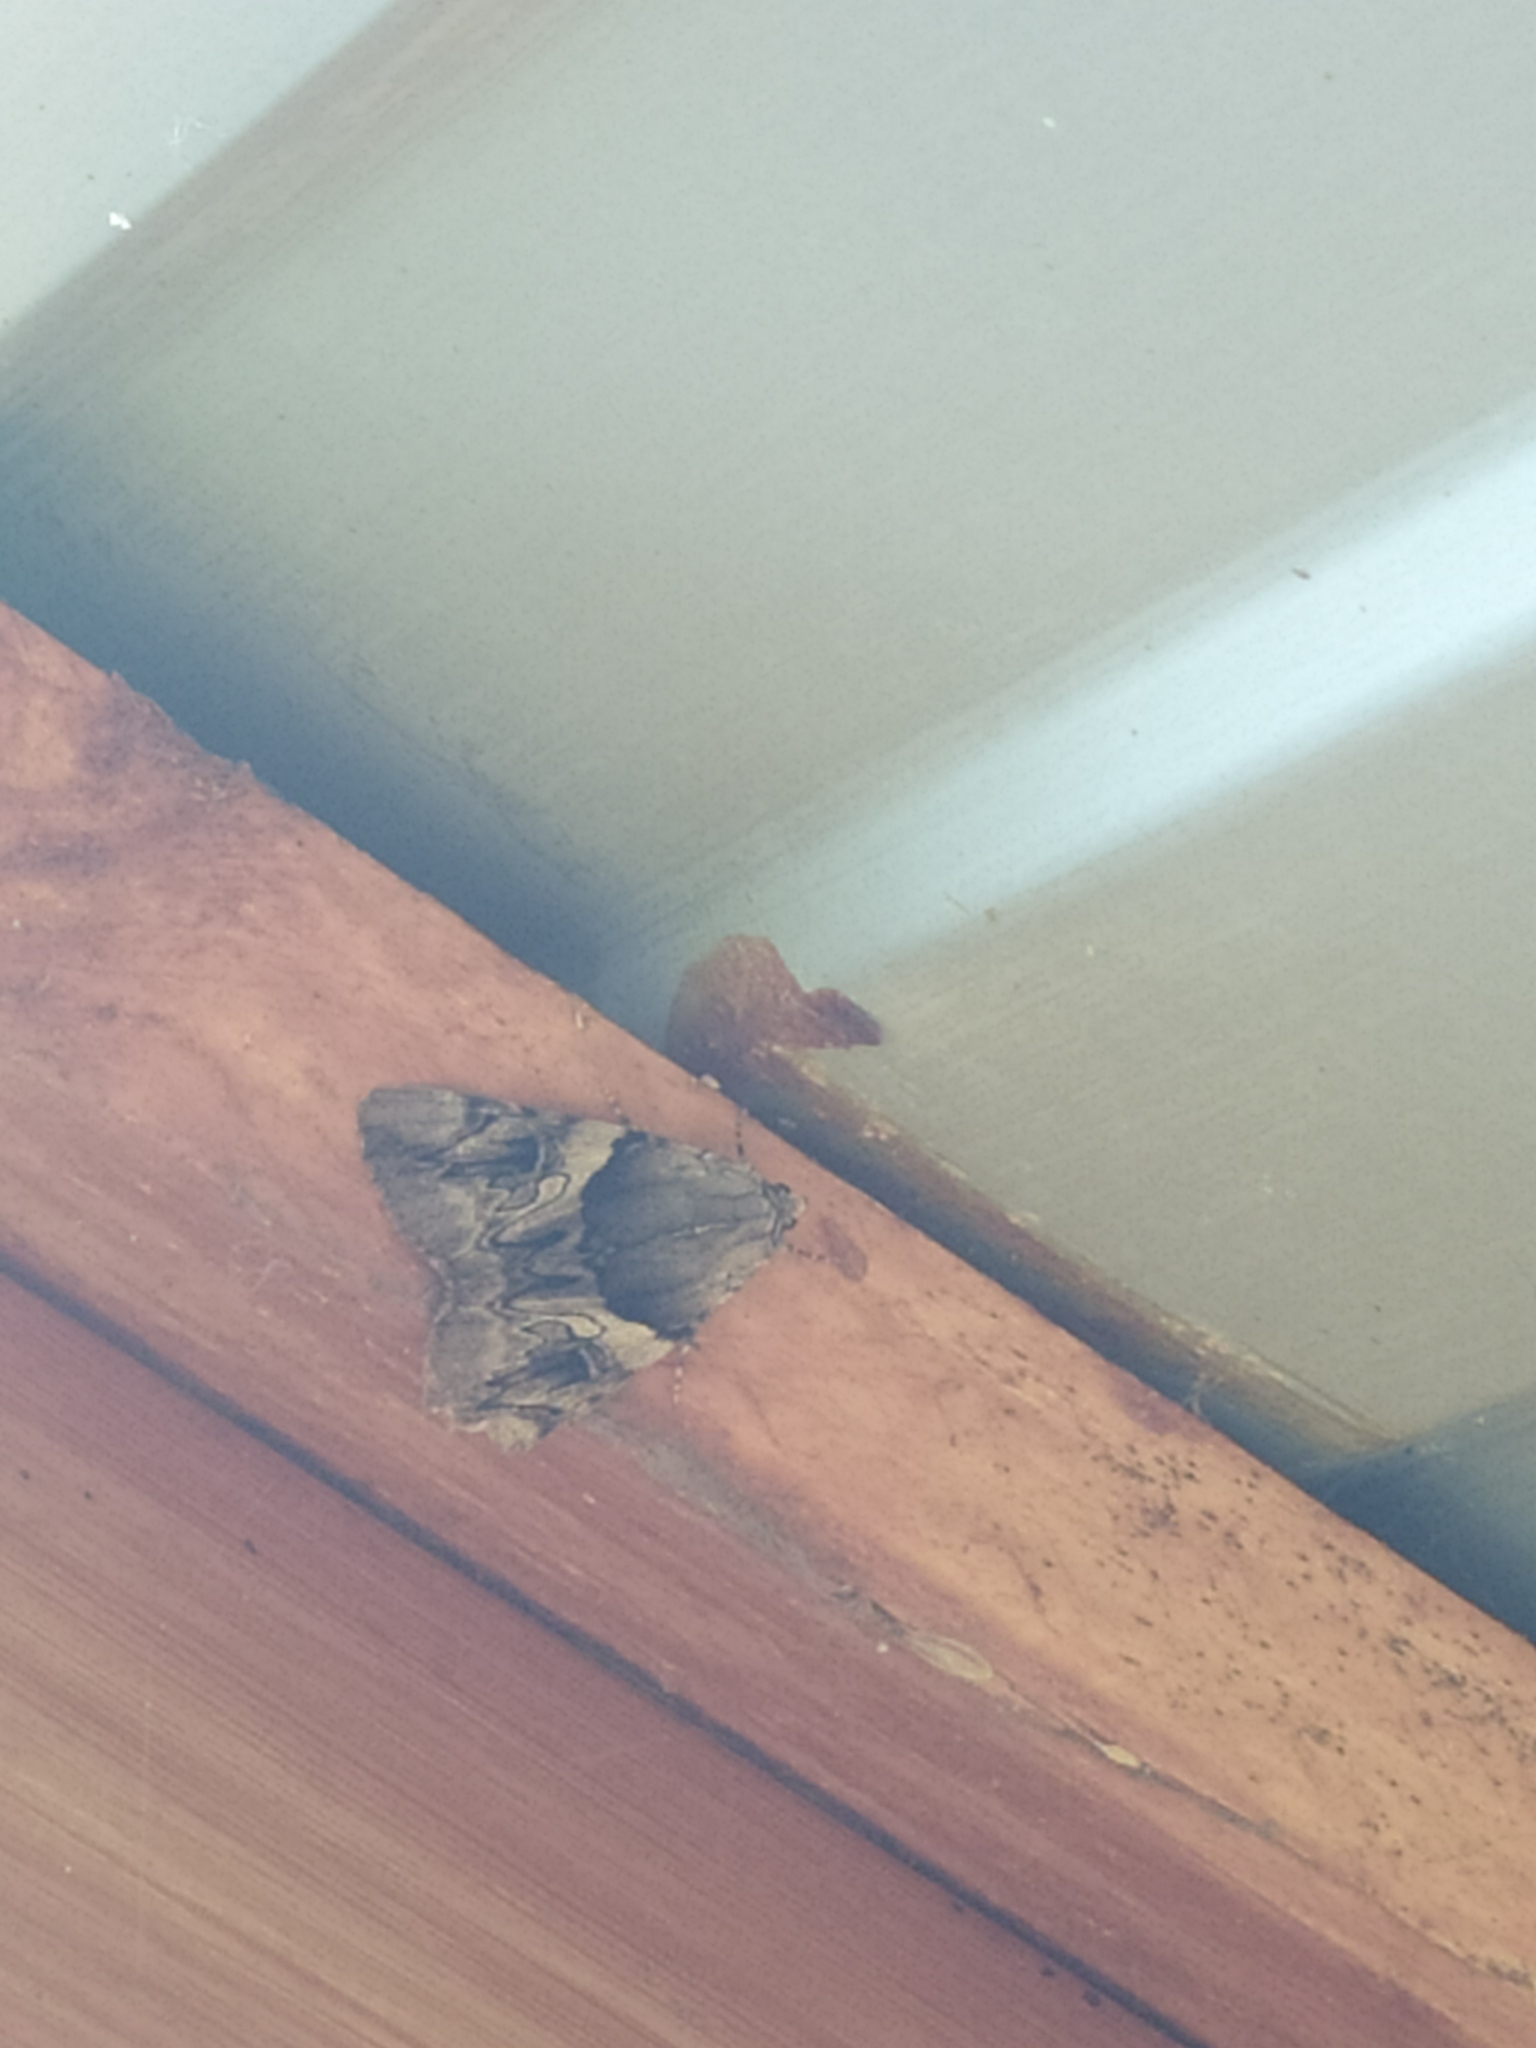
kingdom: Animalia
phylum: Arthropoda
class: Insecta
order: Lepidoptera
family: Erebidae
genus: Catocala
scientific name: Catocala fulminea
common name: Yellow bands underwing
